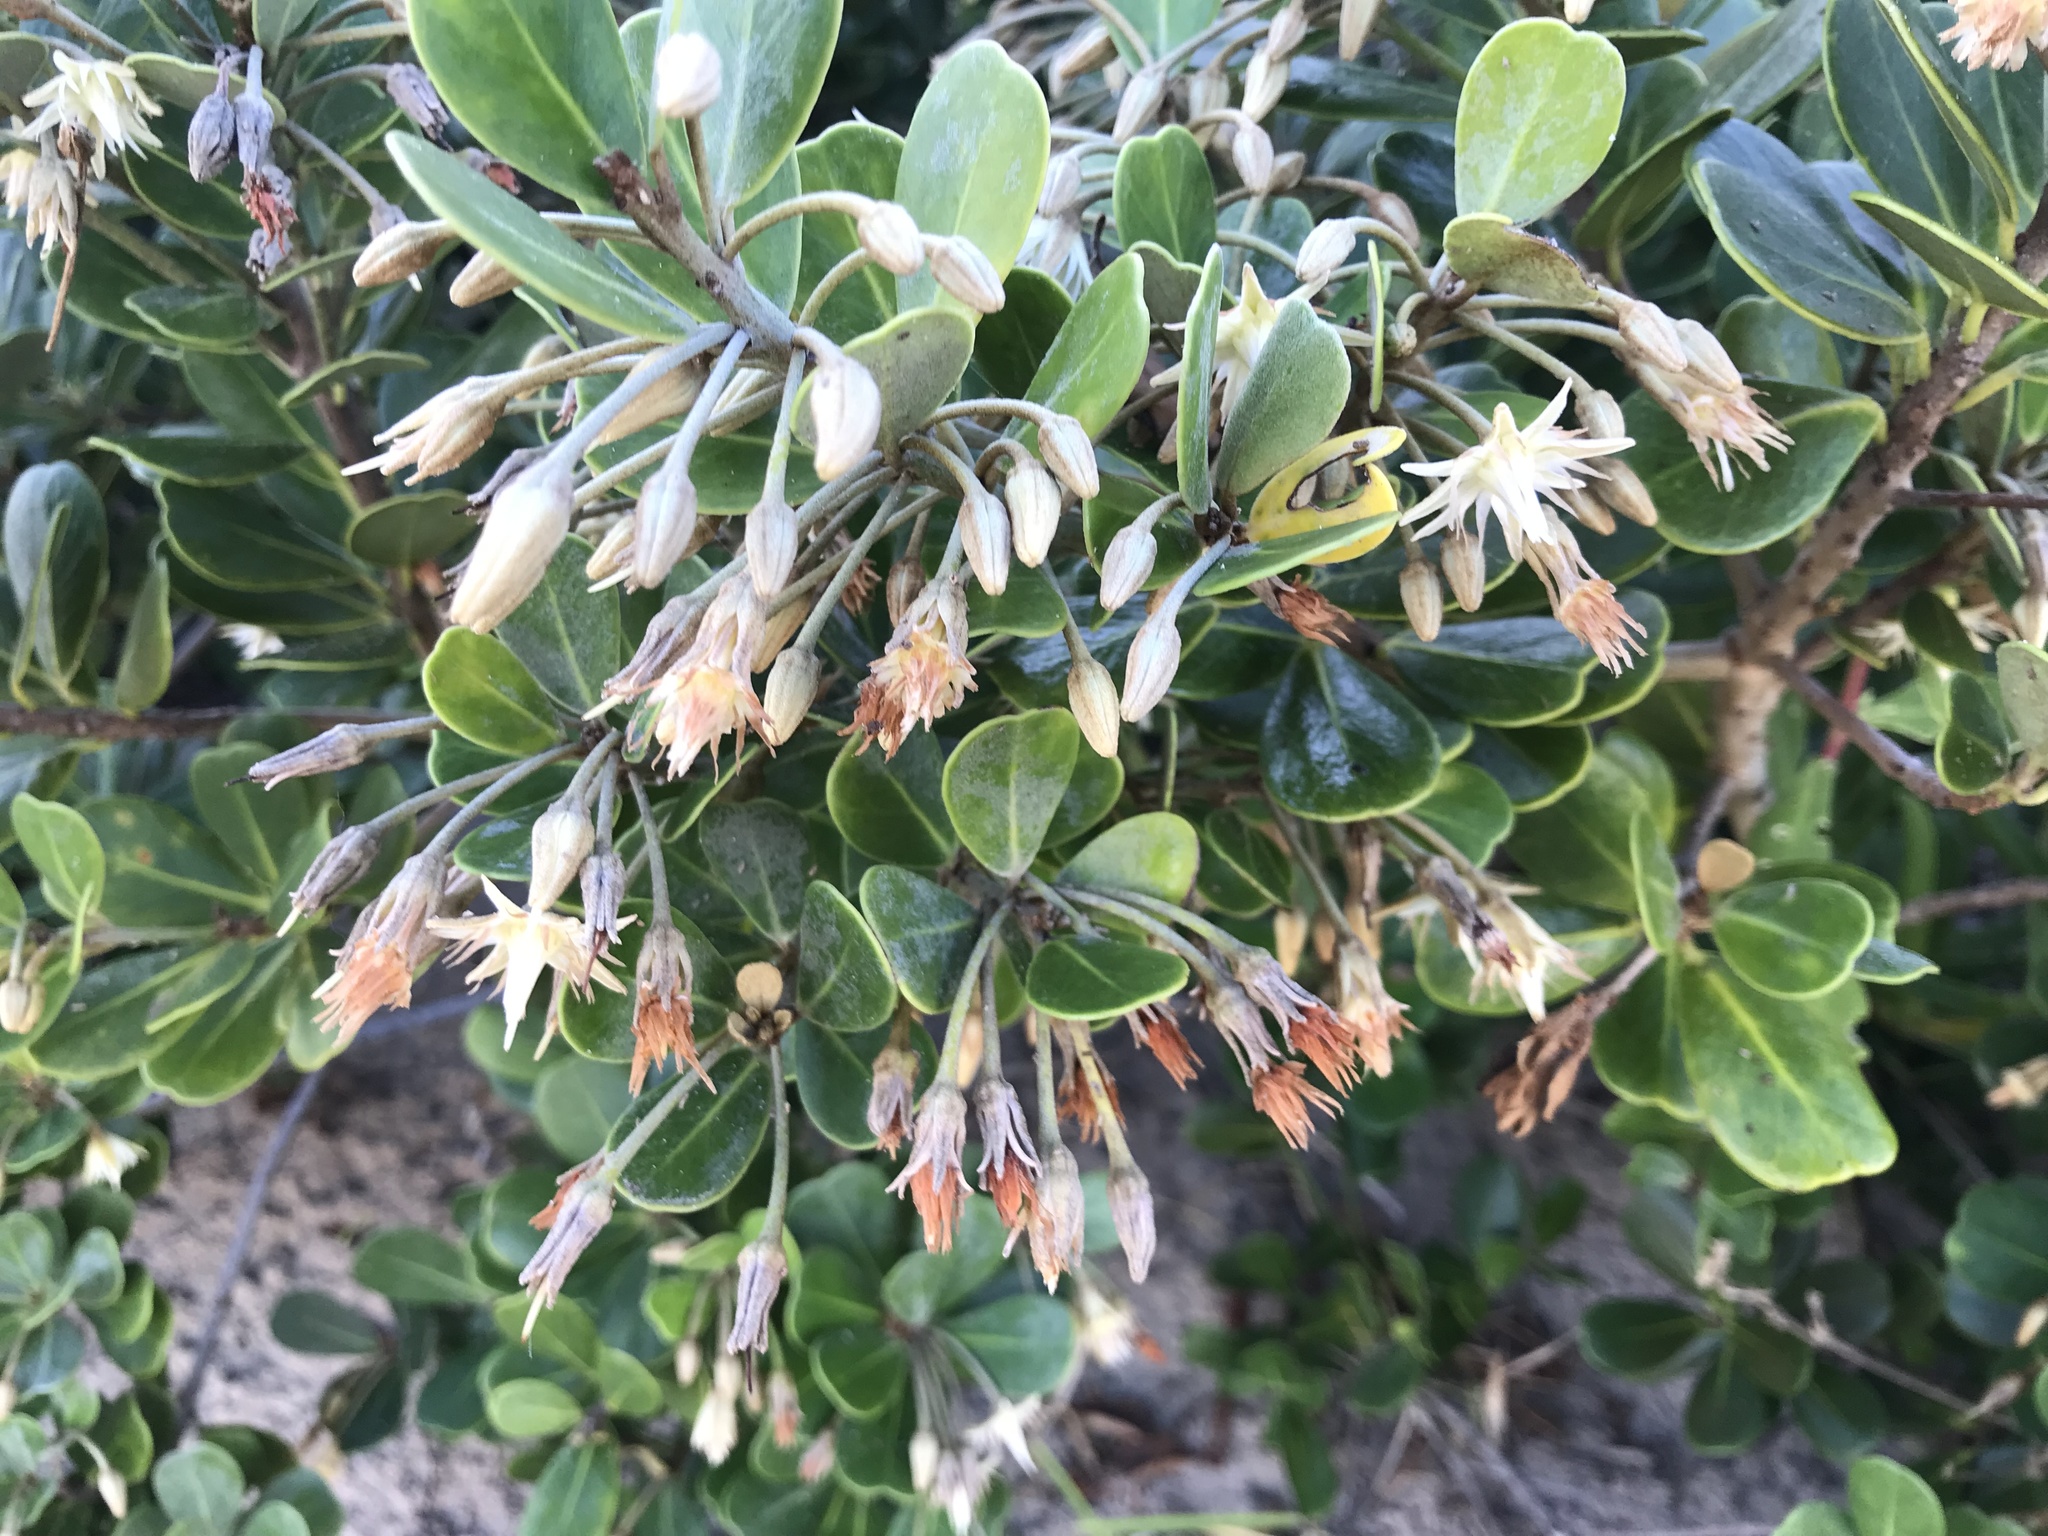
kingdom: Plantae
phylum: Tracheophyta
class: Magnoliopsida
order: Ericales
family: Sapotaceae
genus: Mimusops
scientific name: Mimusops caffra
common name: Coastal red milkwood
